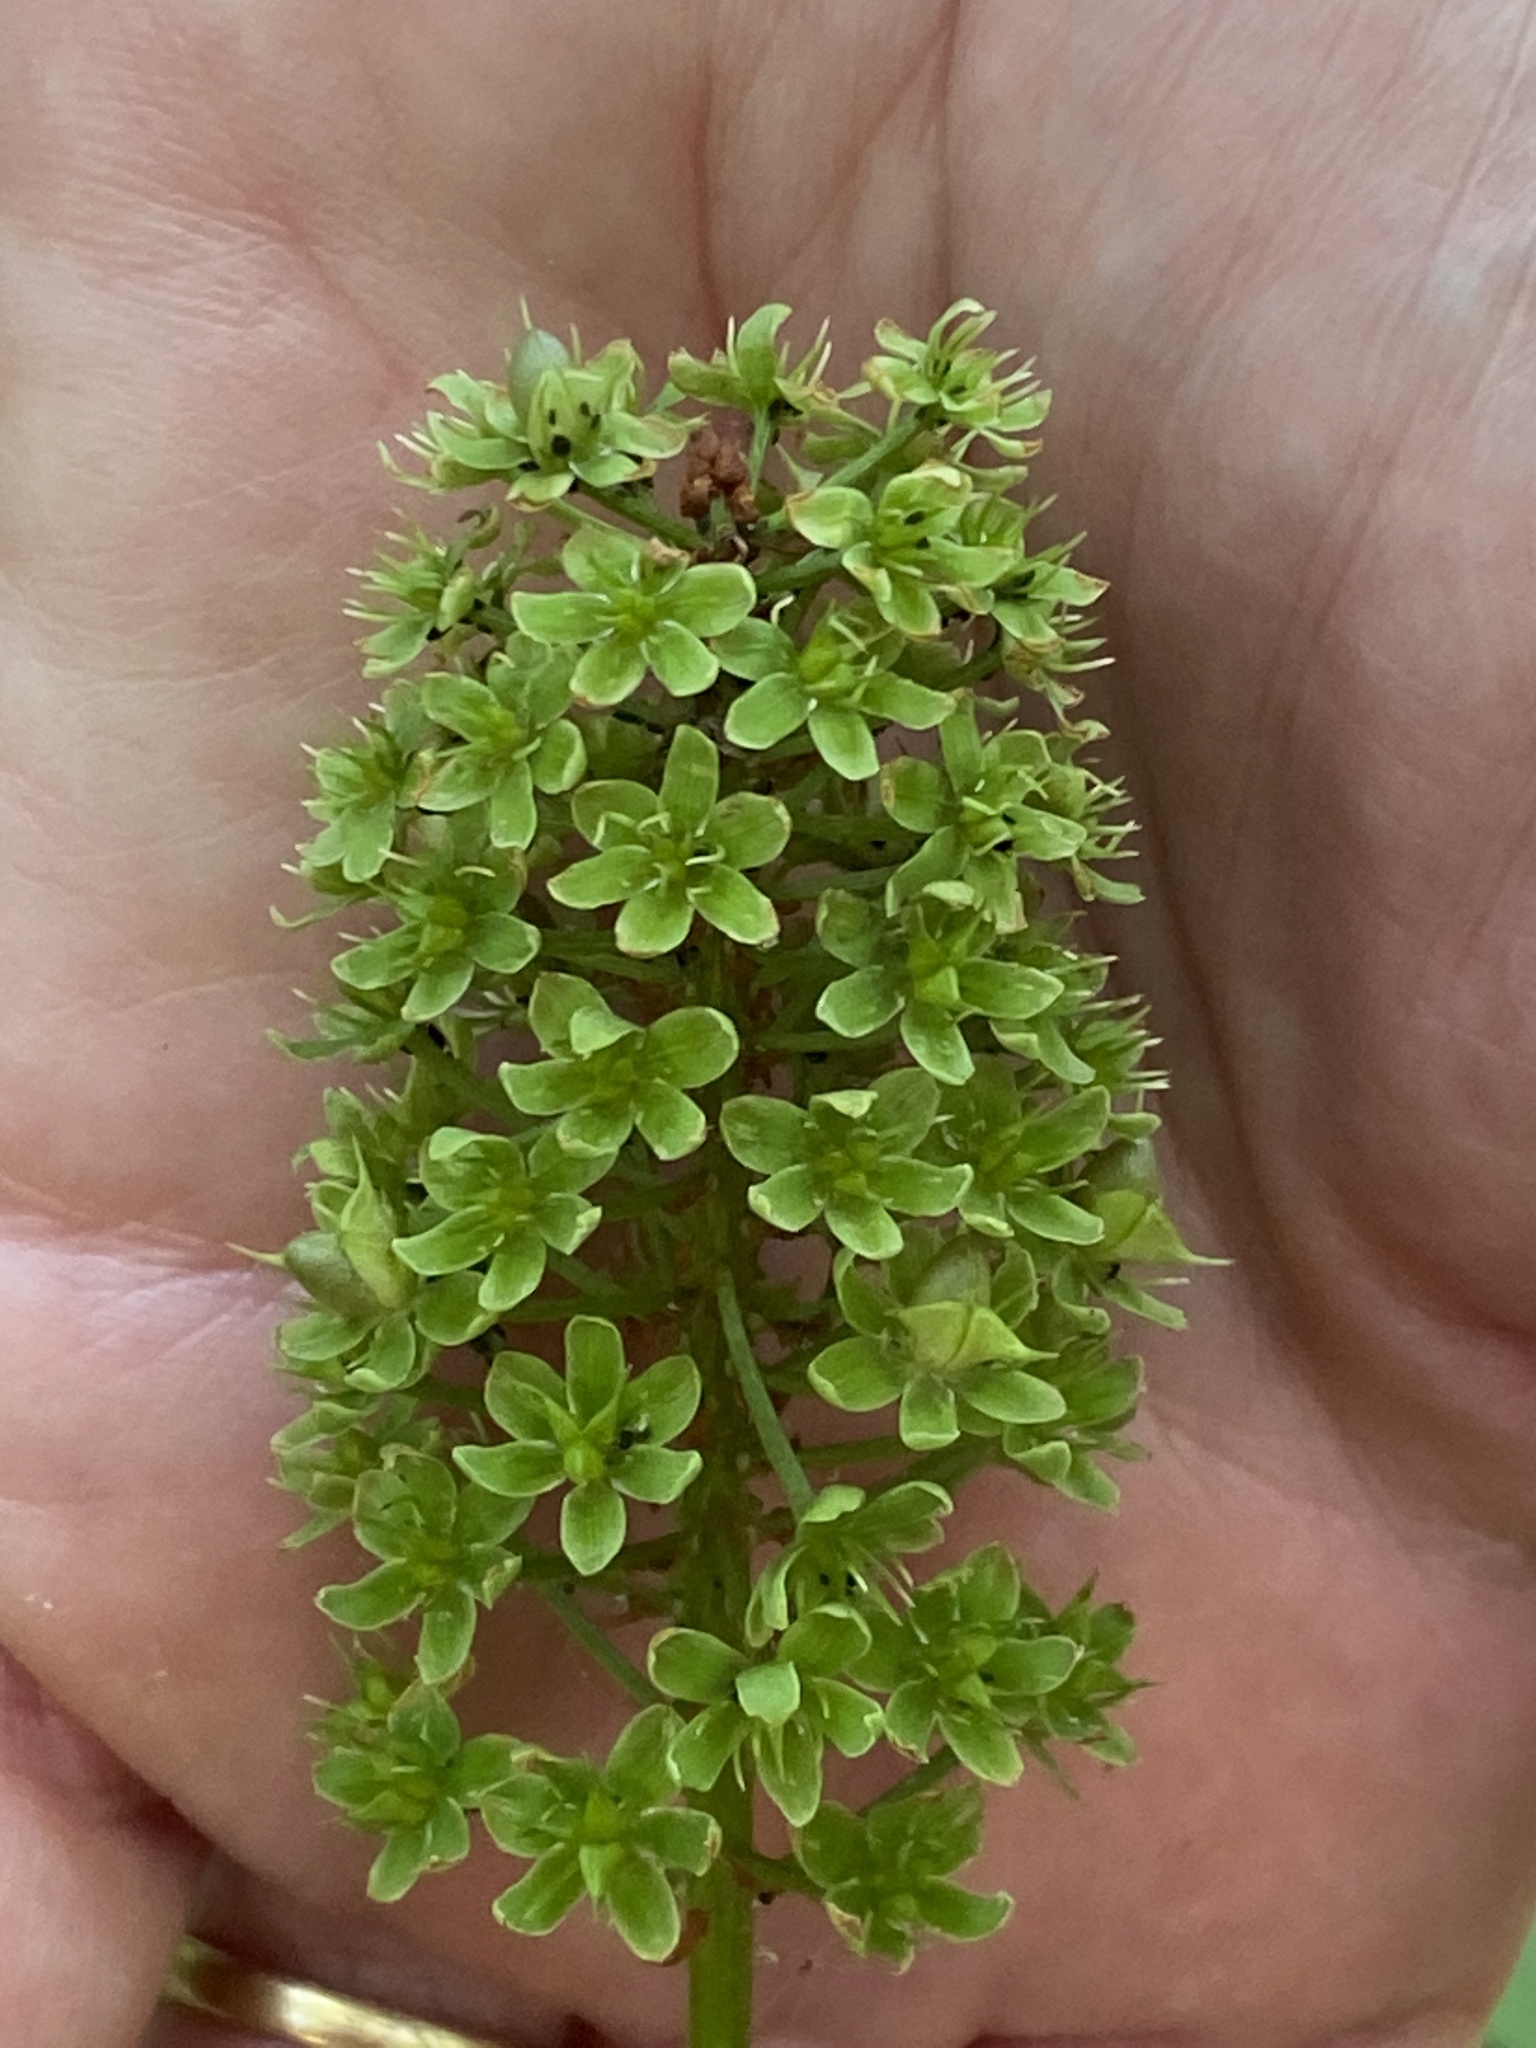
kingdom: Plantae
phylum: Tracheophyta
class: Liliopsida
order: Liliales
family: Melanthiaceae
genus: Amianthium
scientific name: Amianthium muscitoxicum
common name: Fly-poison
